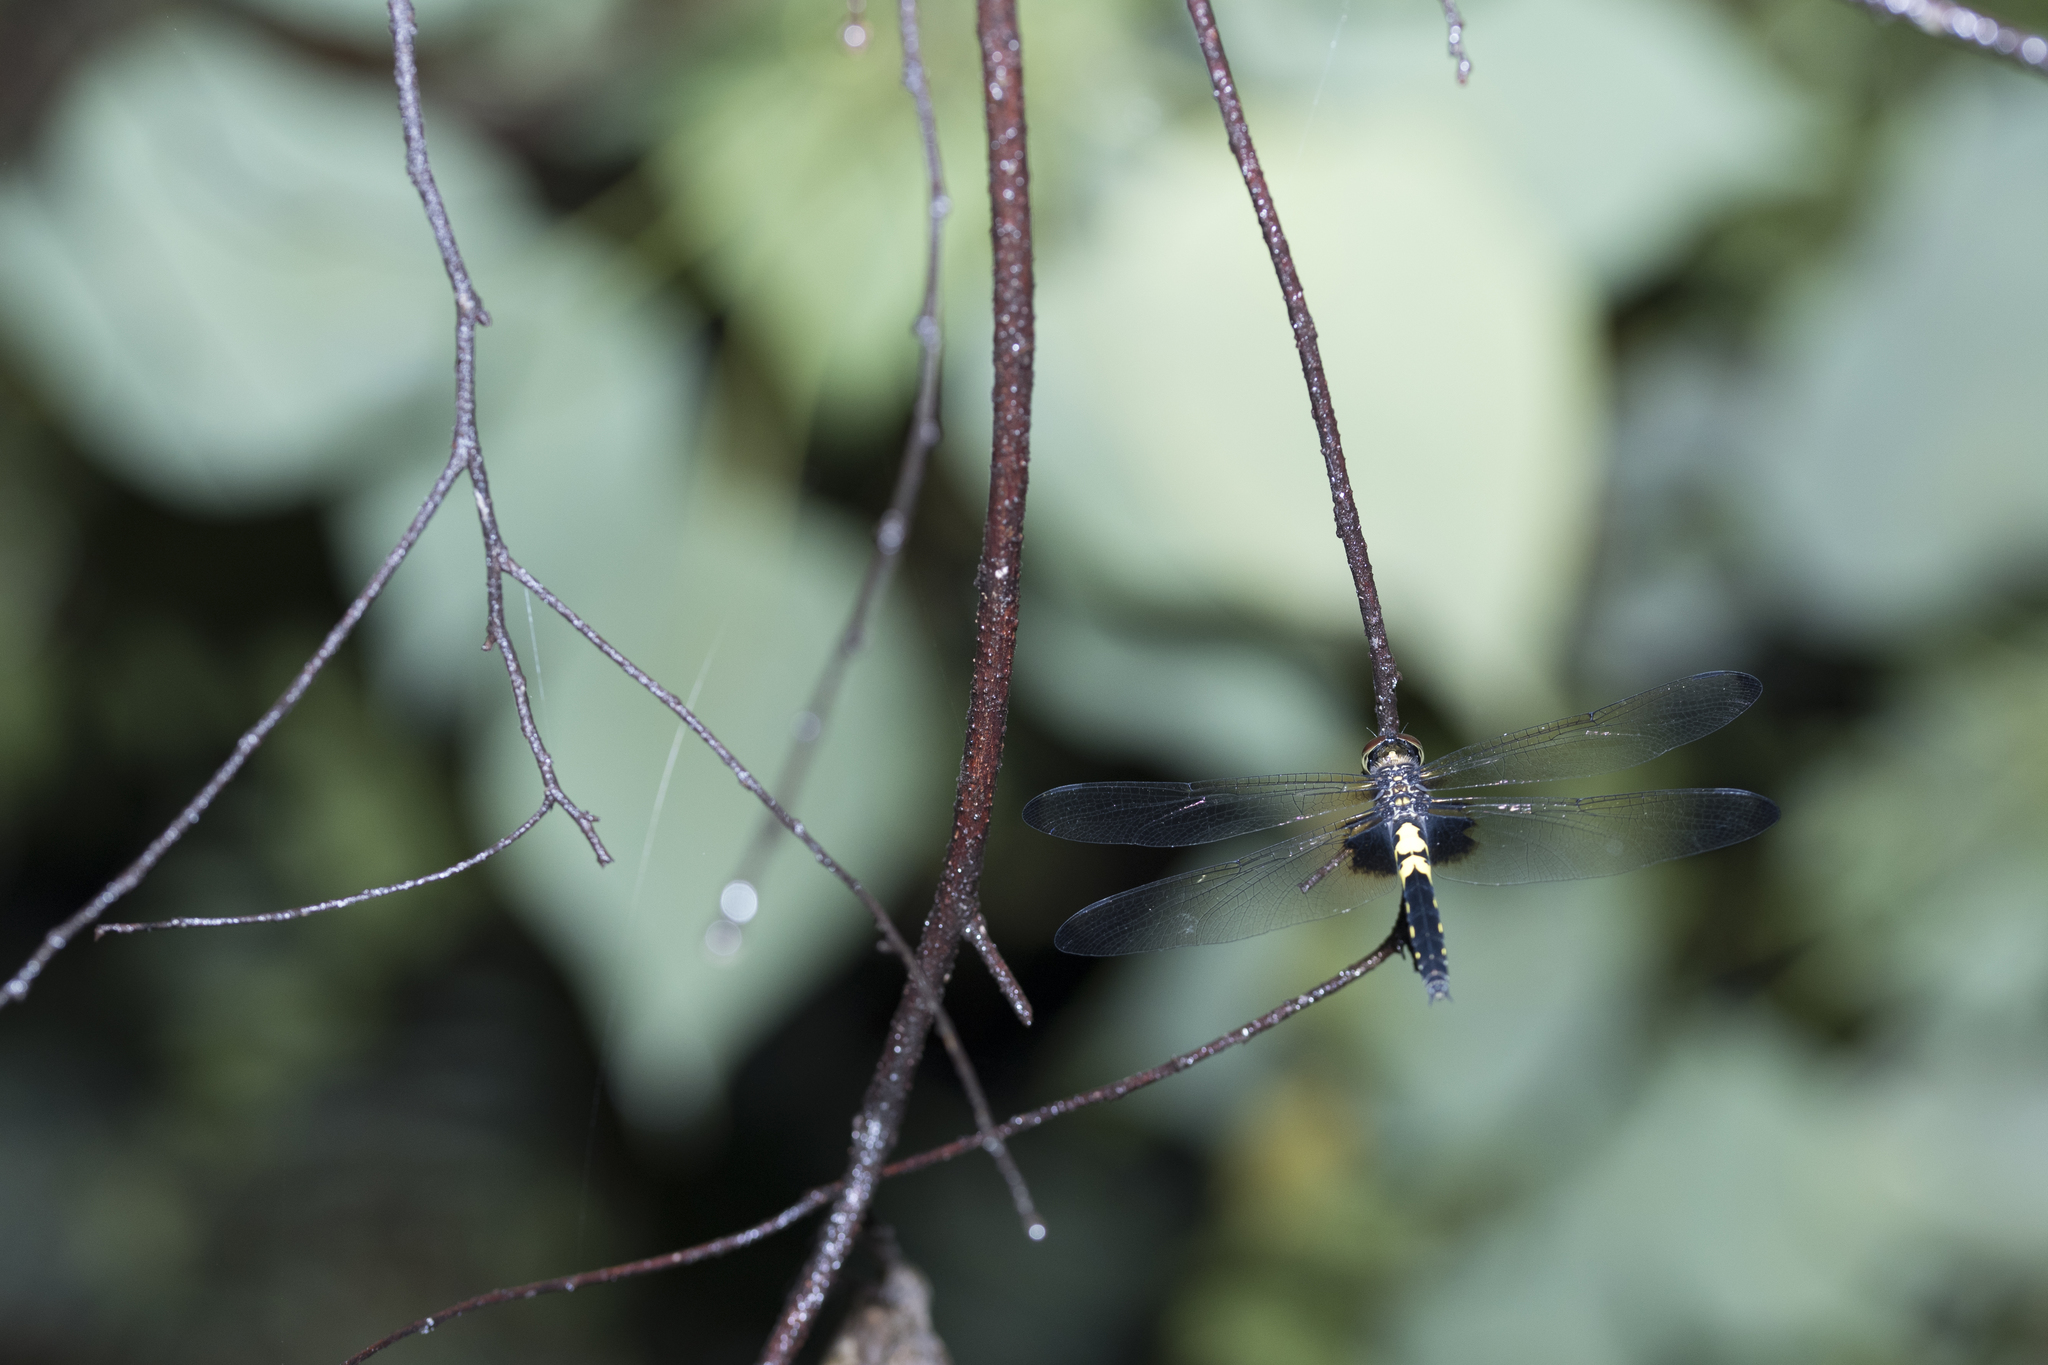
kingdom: Animalia
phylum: Arthropoda
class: Insecta
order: Odonata
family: Libellulidae
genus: Pseudothemis
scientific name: Pseudothemis zonata
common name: Pied skimmer
